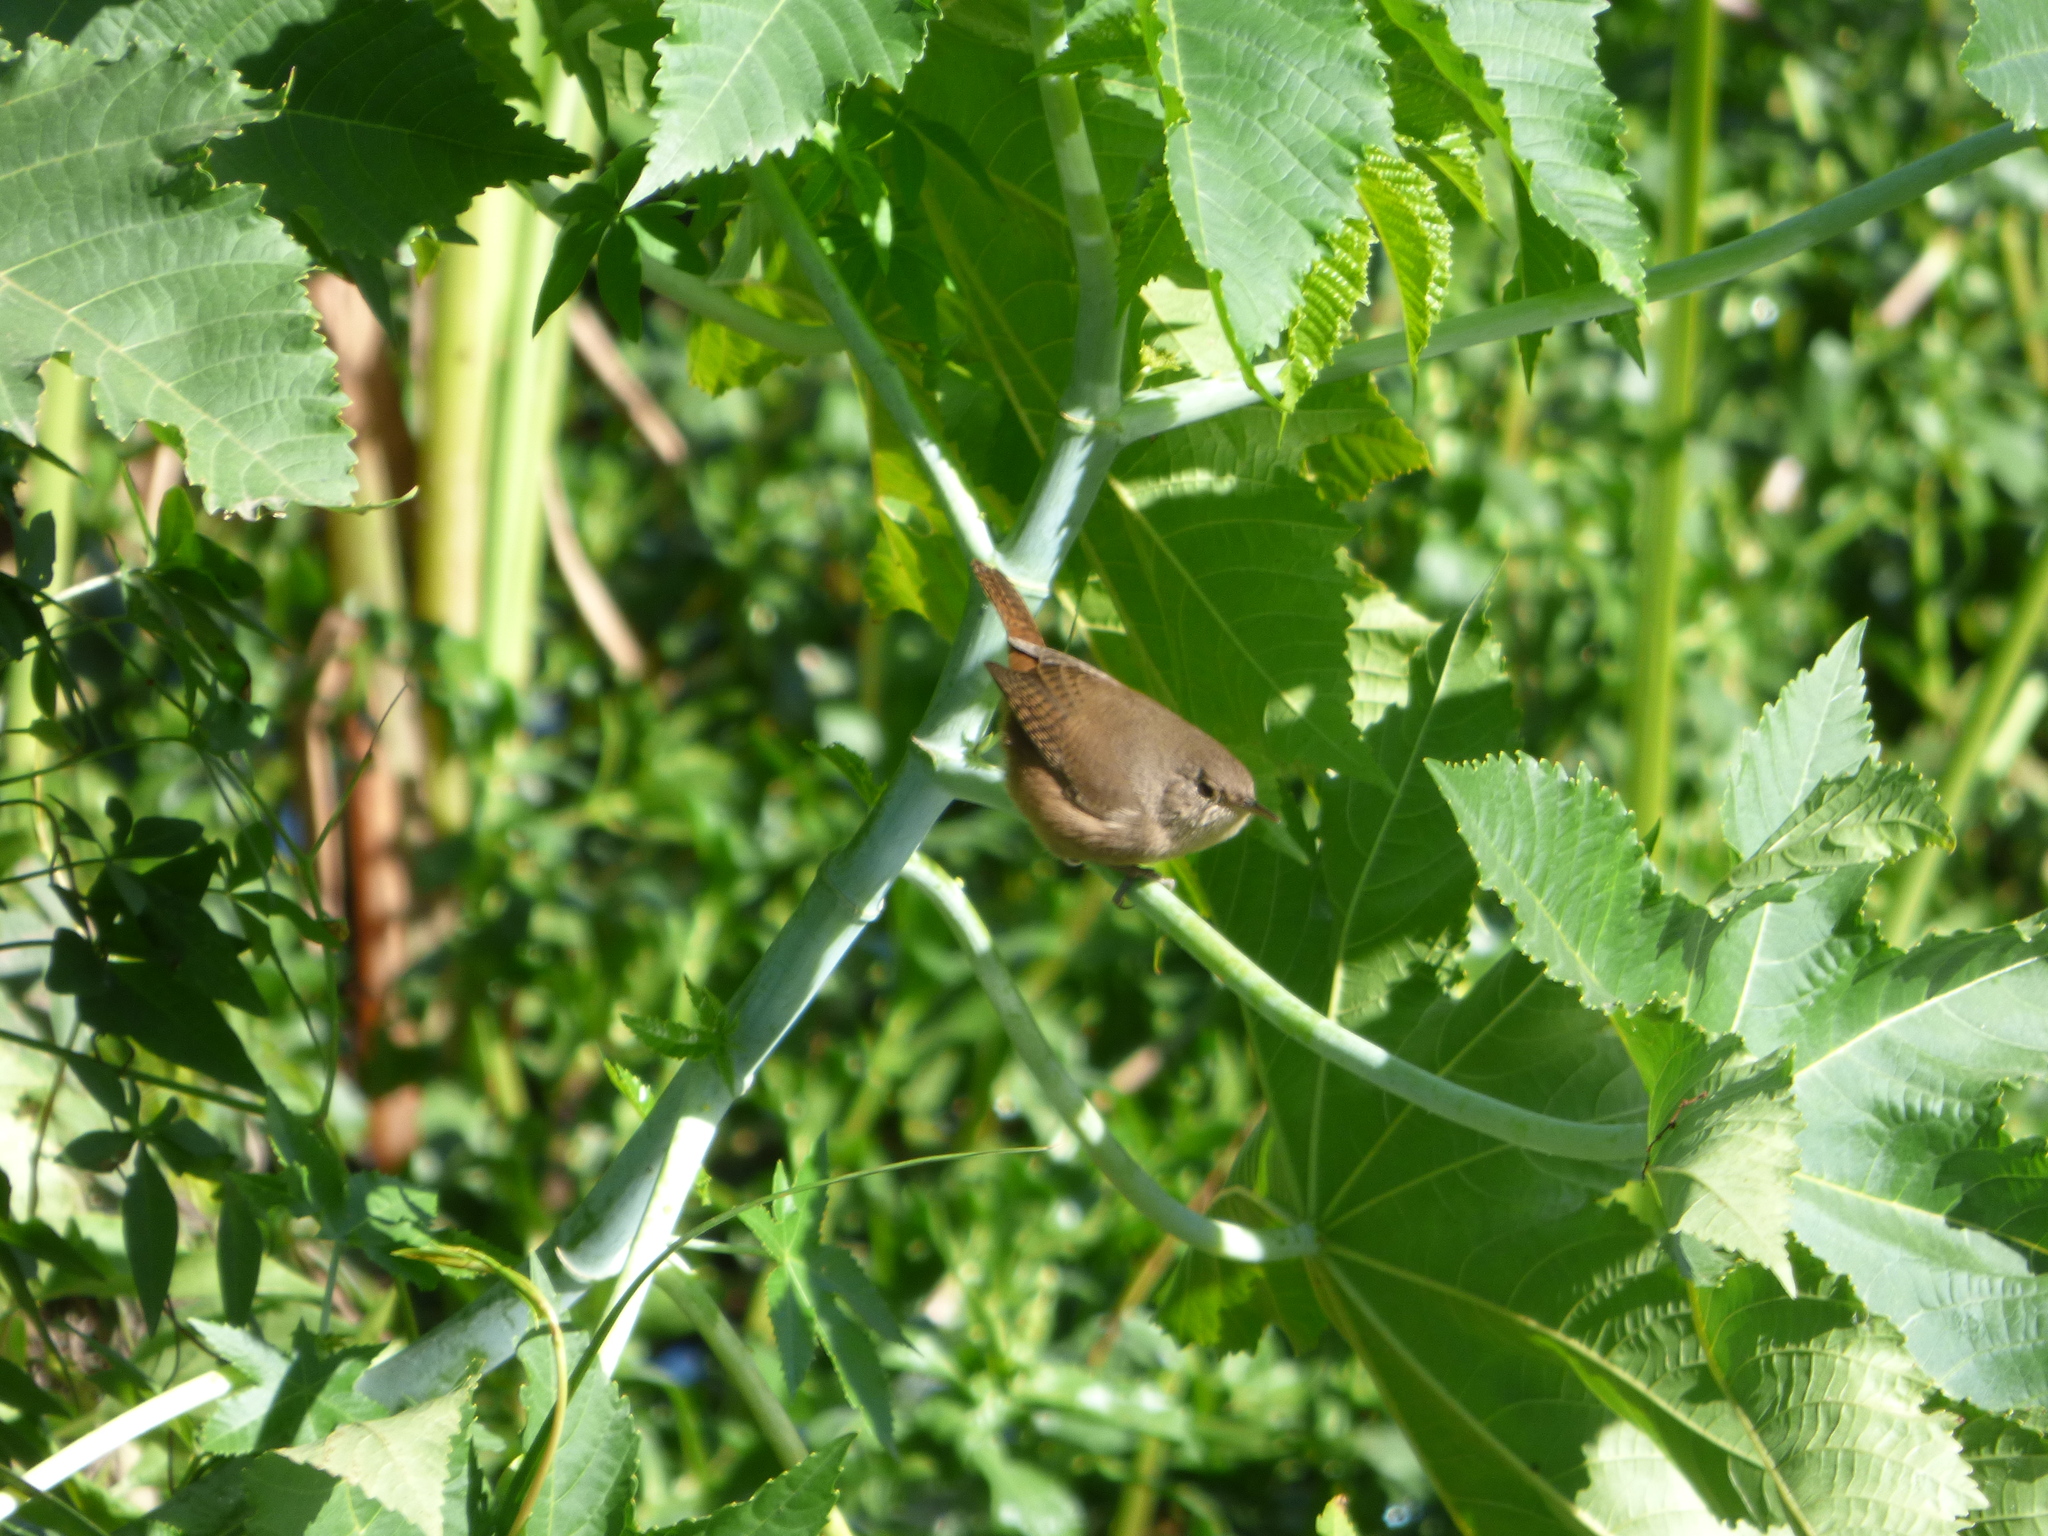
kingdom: Animalia
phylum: Chordata
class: Aves
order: Passeriformes
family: Troglodytidae
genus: Troglodytes
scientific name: Troglodytes aedon
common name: House wren
